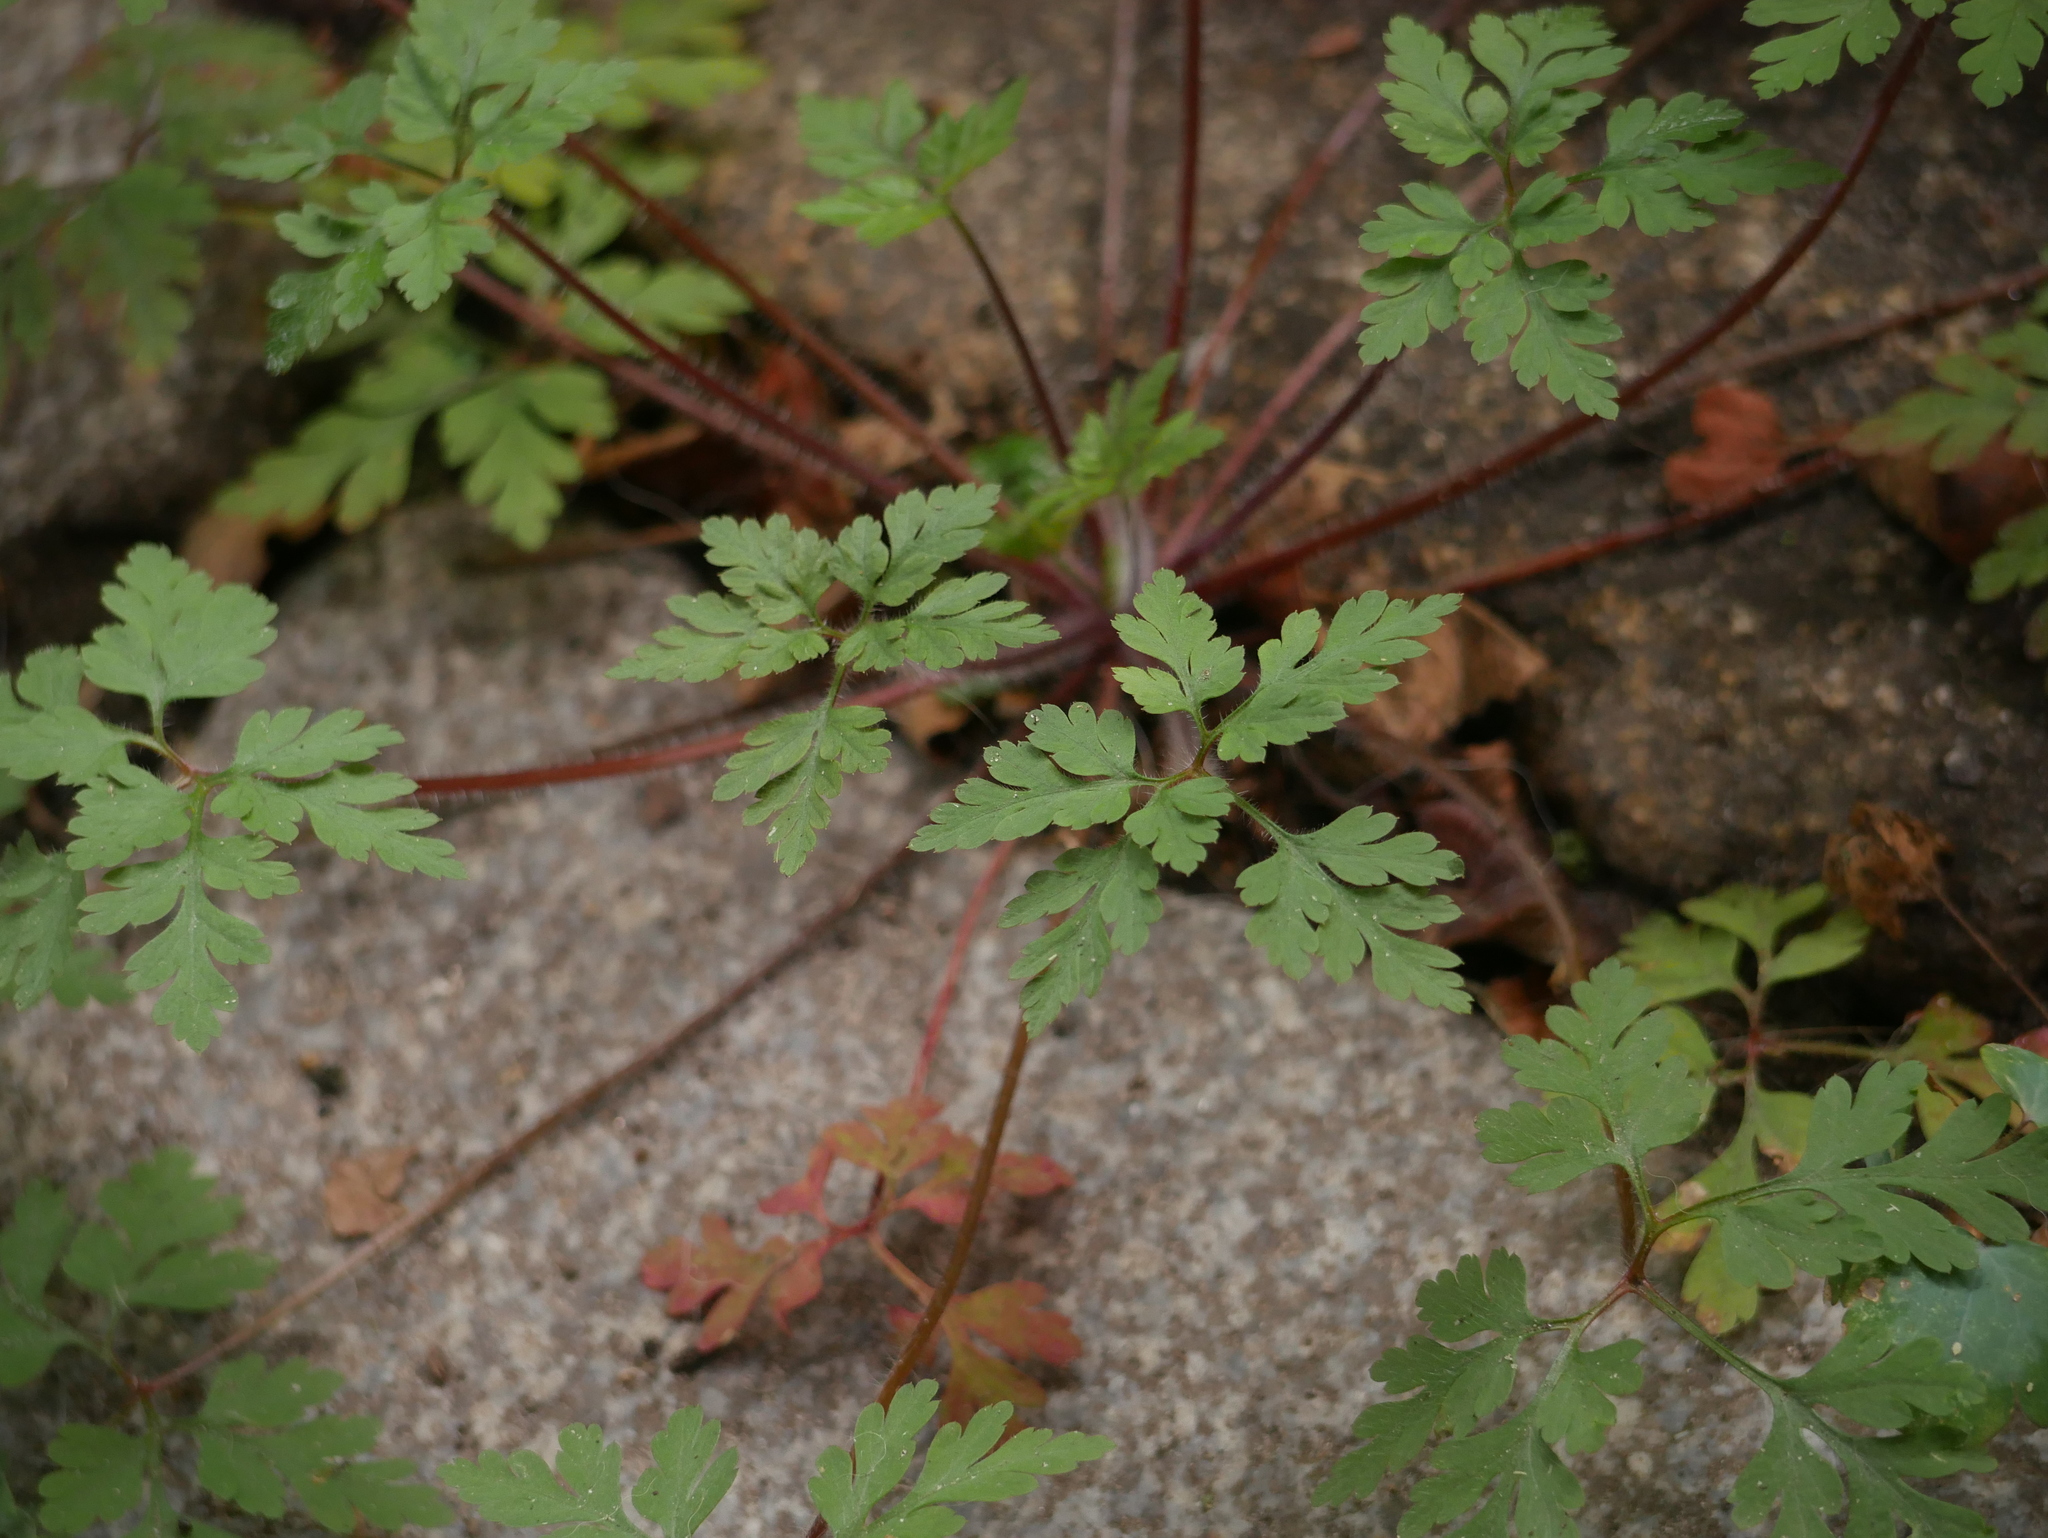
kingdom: Plantae
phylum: Tracheophyta
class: Magnoliopsida
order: Geraniales
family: Geraniaceae
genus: Geranium
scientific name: Geranium robertianum
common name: Herb-robert
